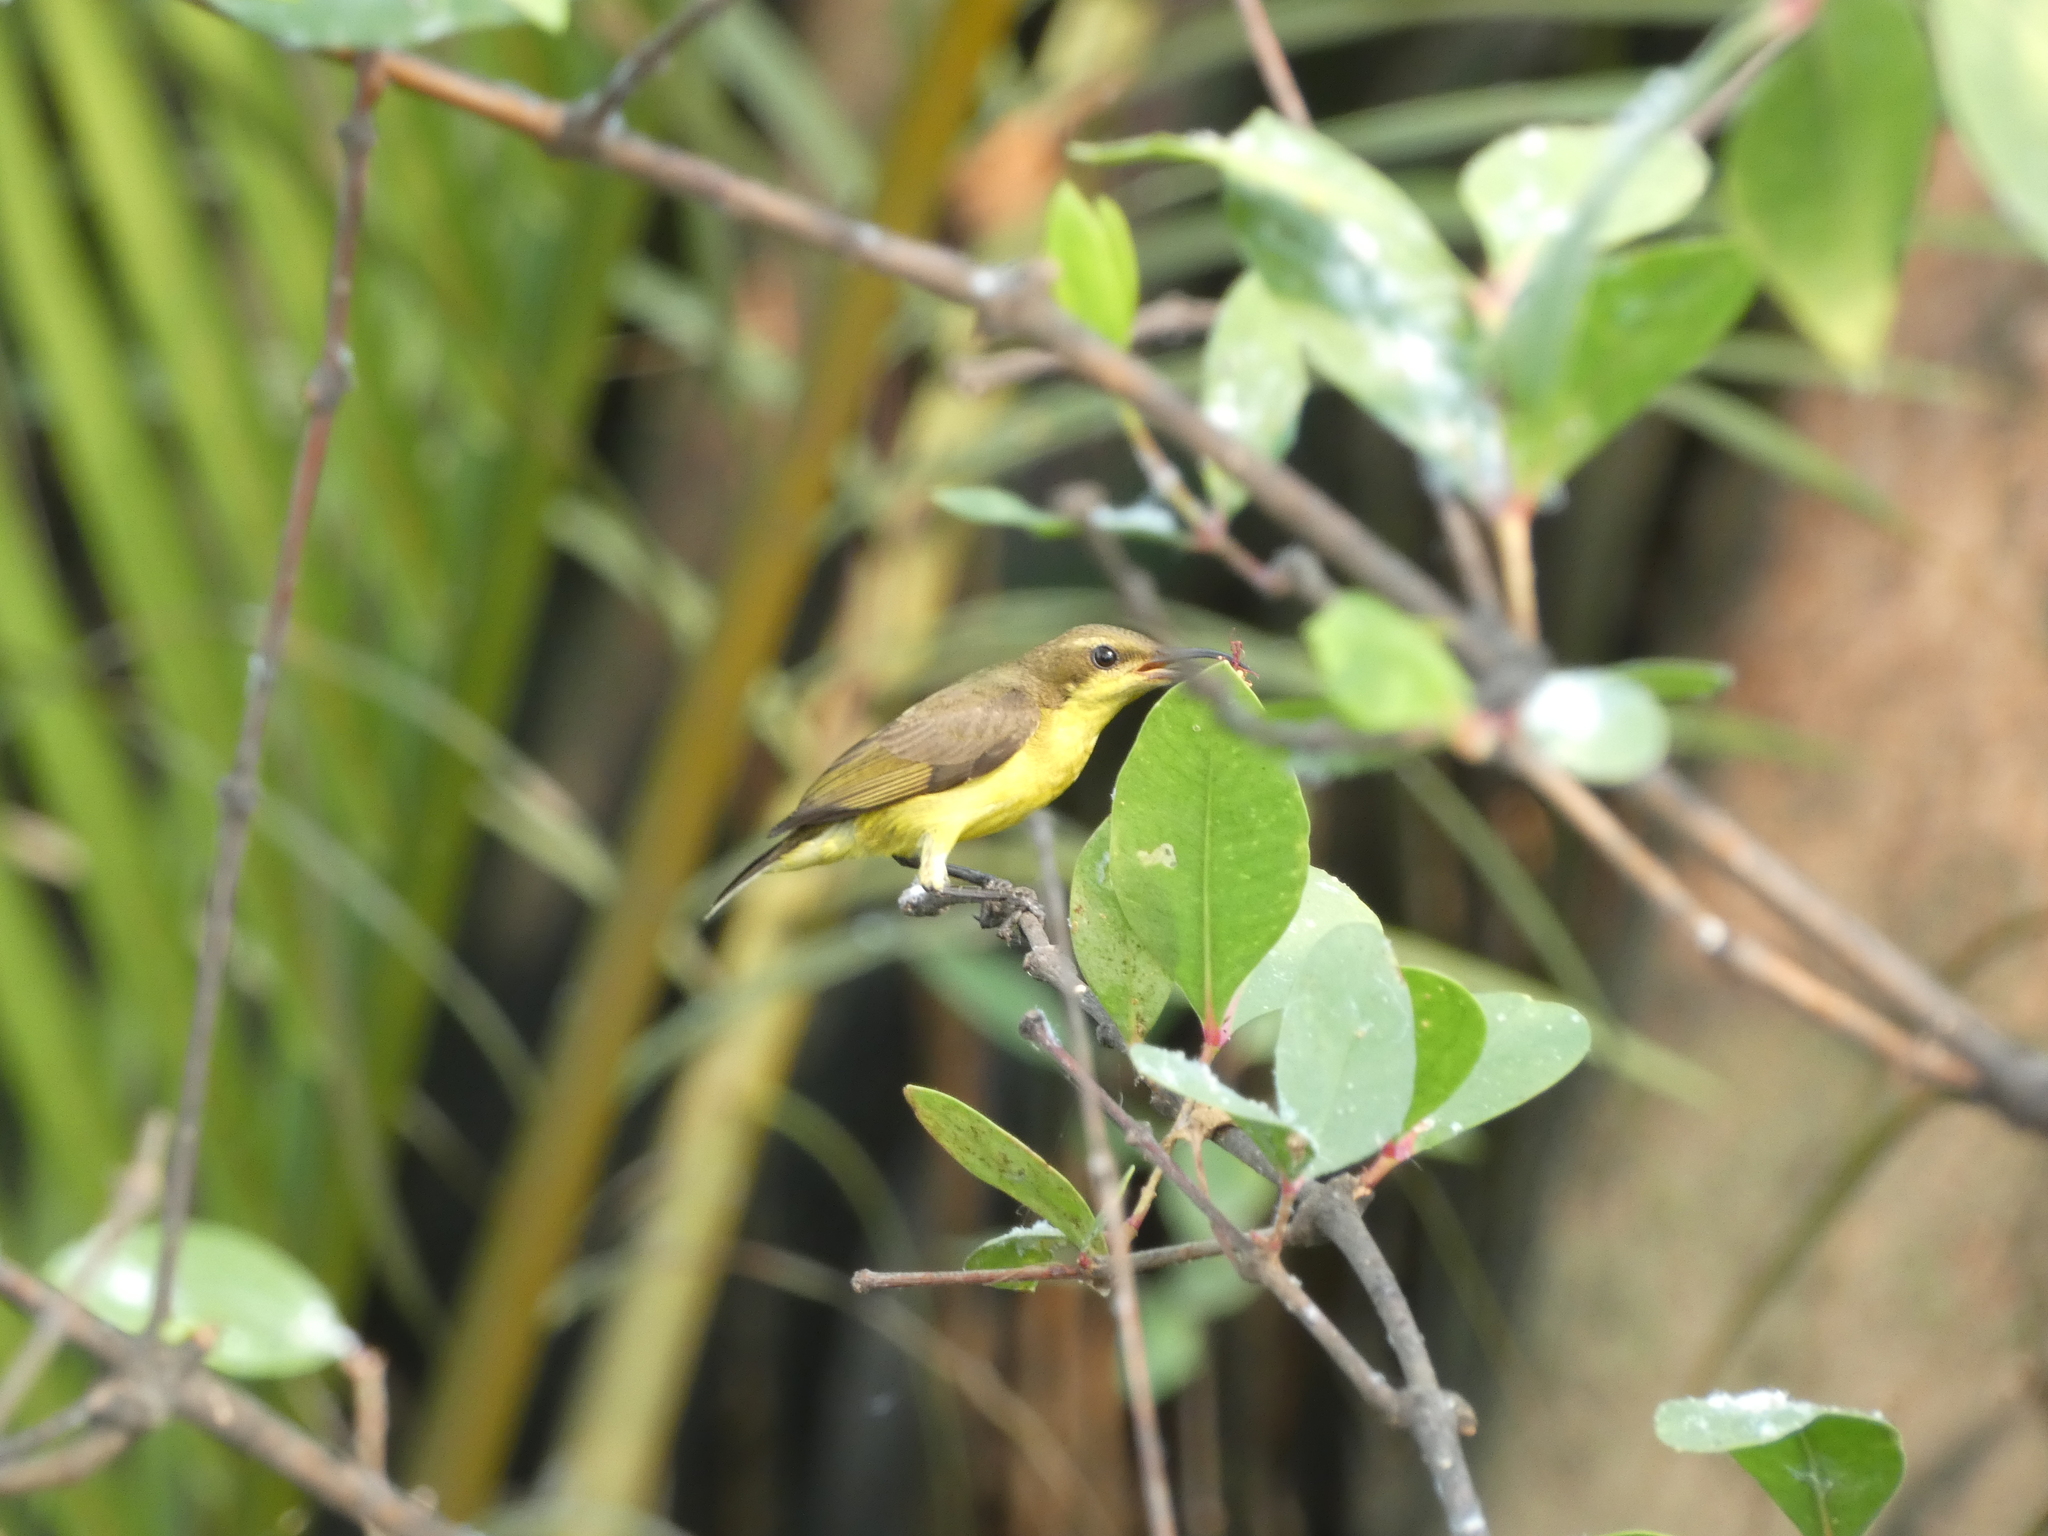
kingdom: Animalia
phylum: Chordata
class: Aves
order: Passeriformes
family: Nectariniidae
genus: Cinnyris
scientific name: Cinnyris
